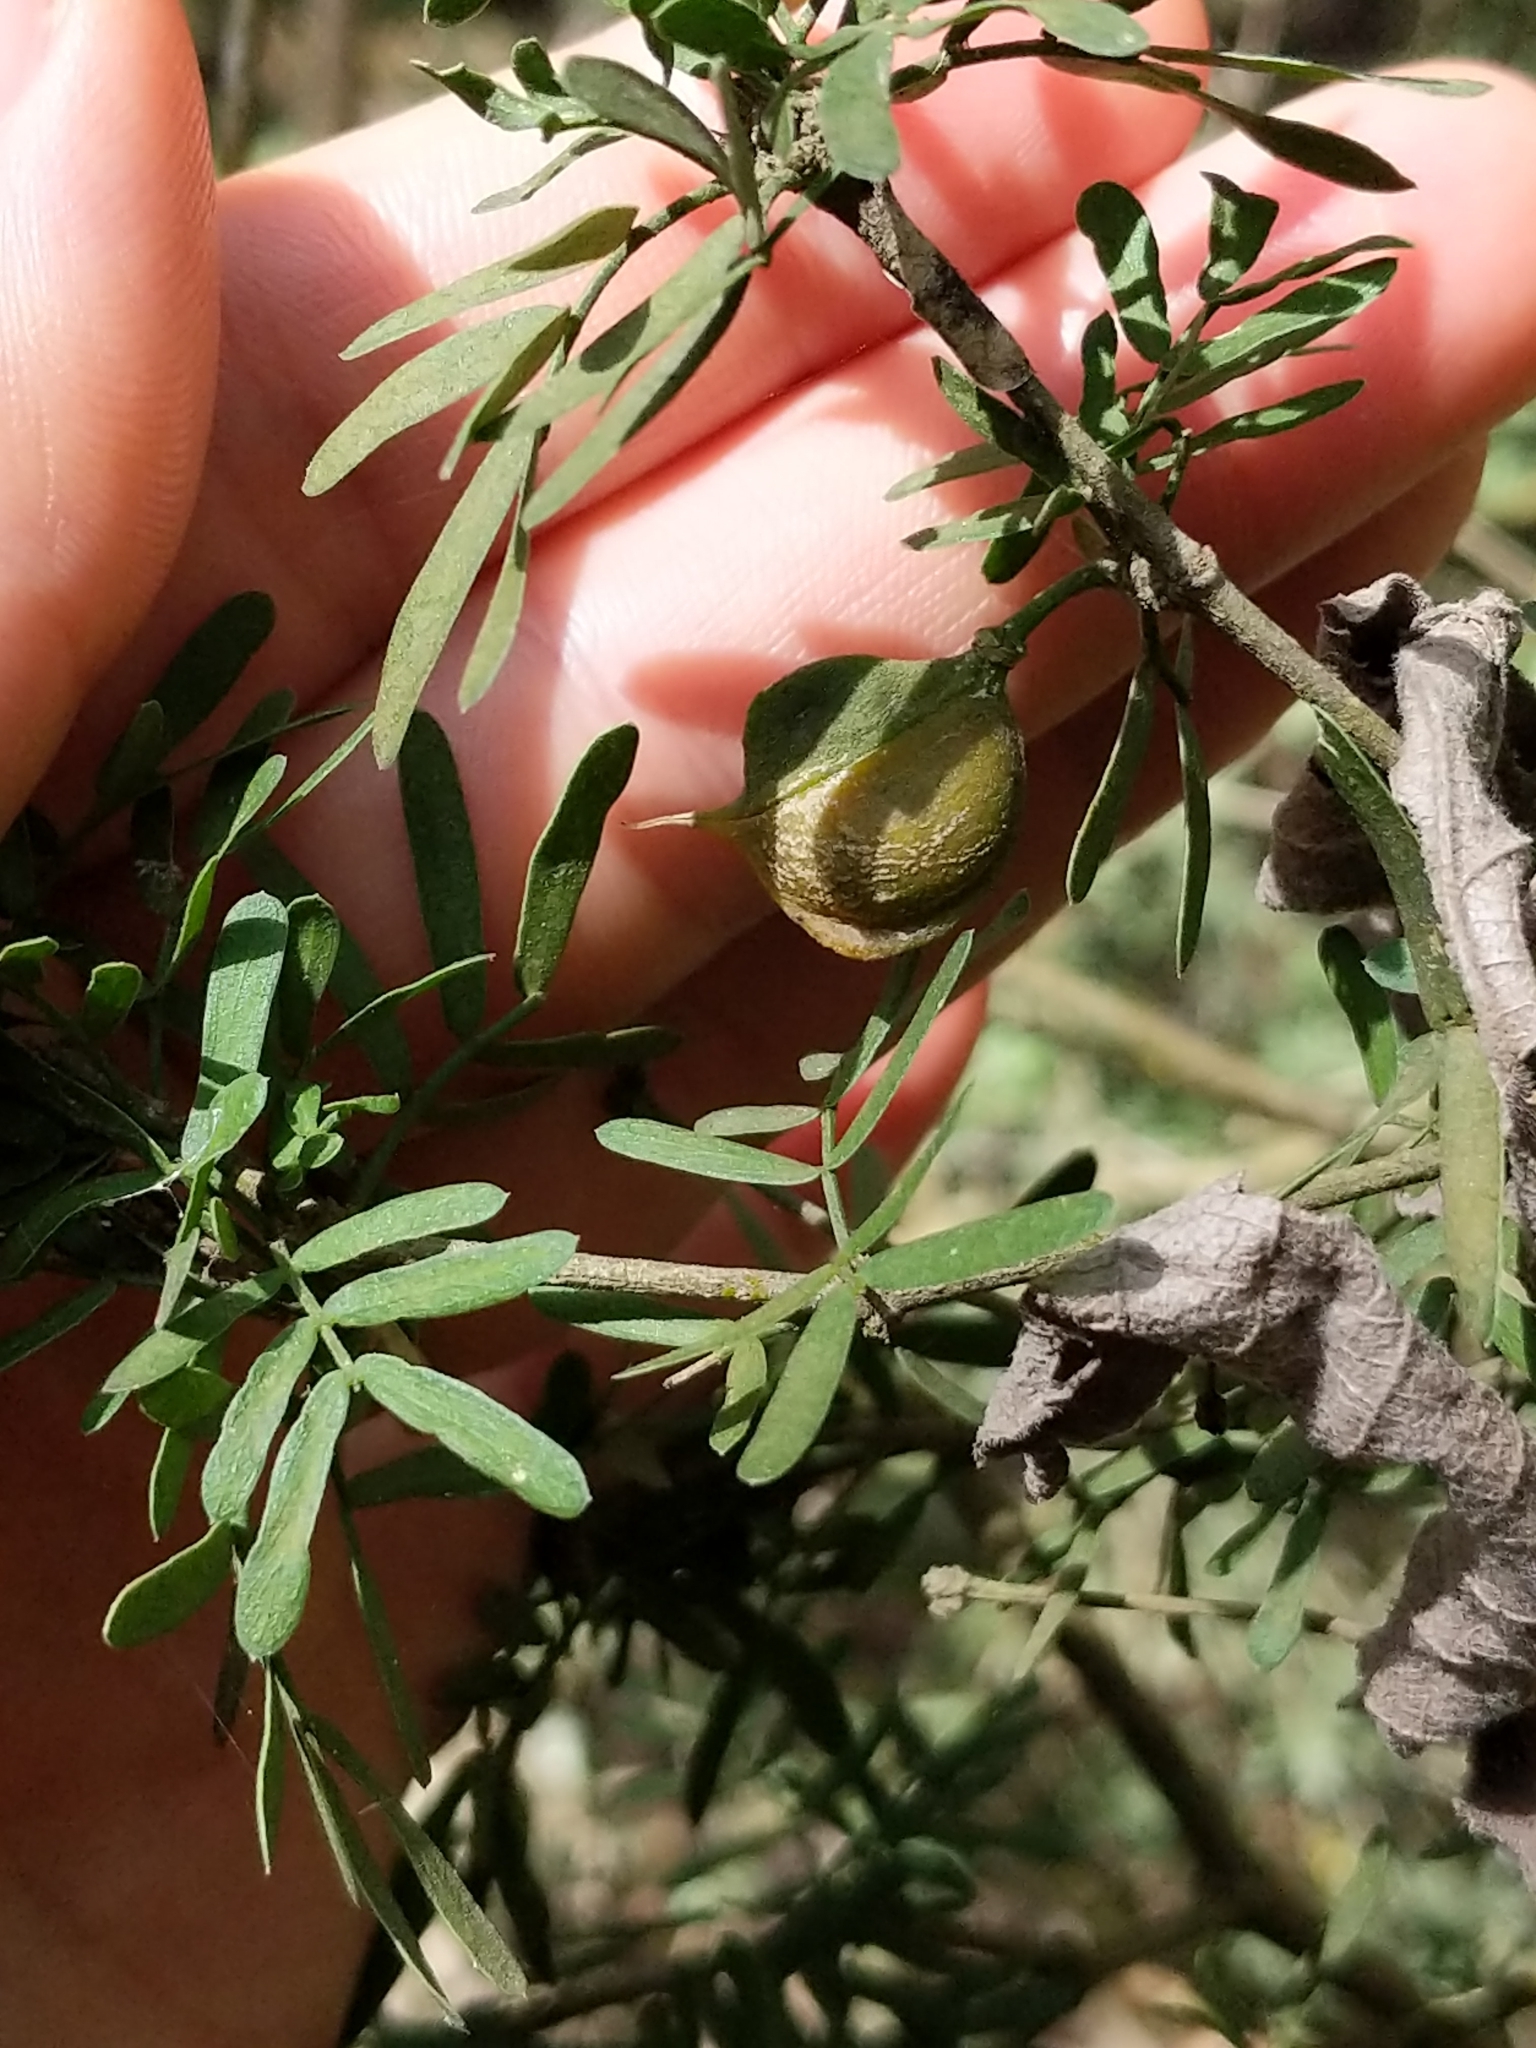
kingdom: Plantae
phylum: Tracheophyta
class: Magnoliopsida
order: Zygophyllales
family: Zygophyllaceae
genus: Porlieria
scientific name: Porlieria angustifolia
